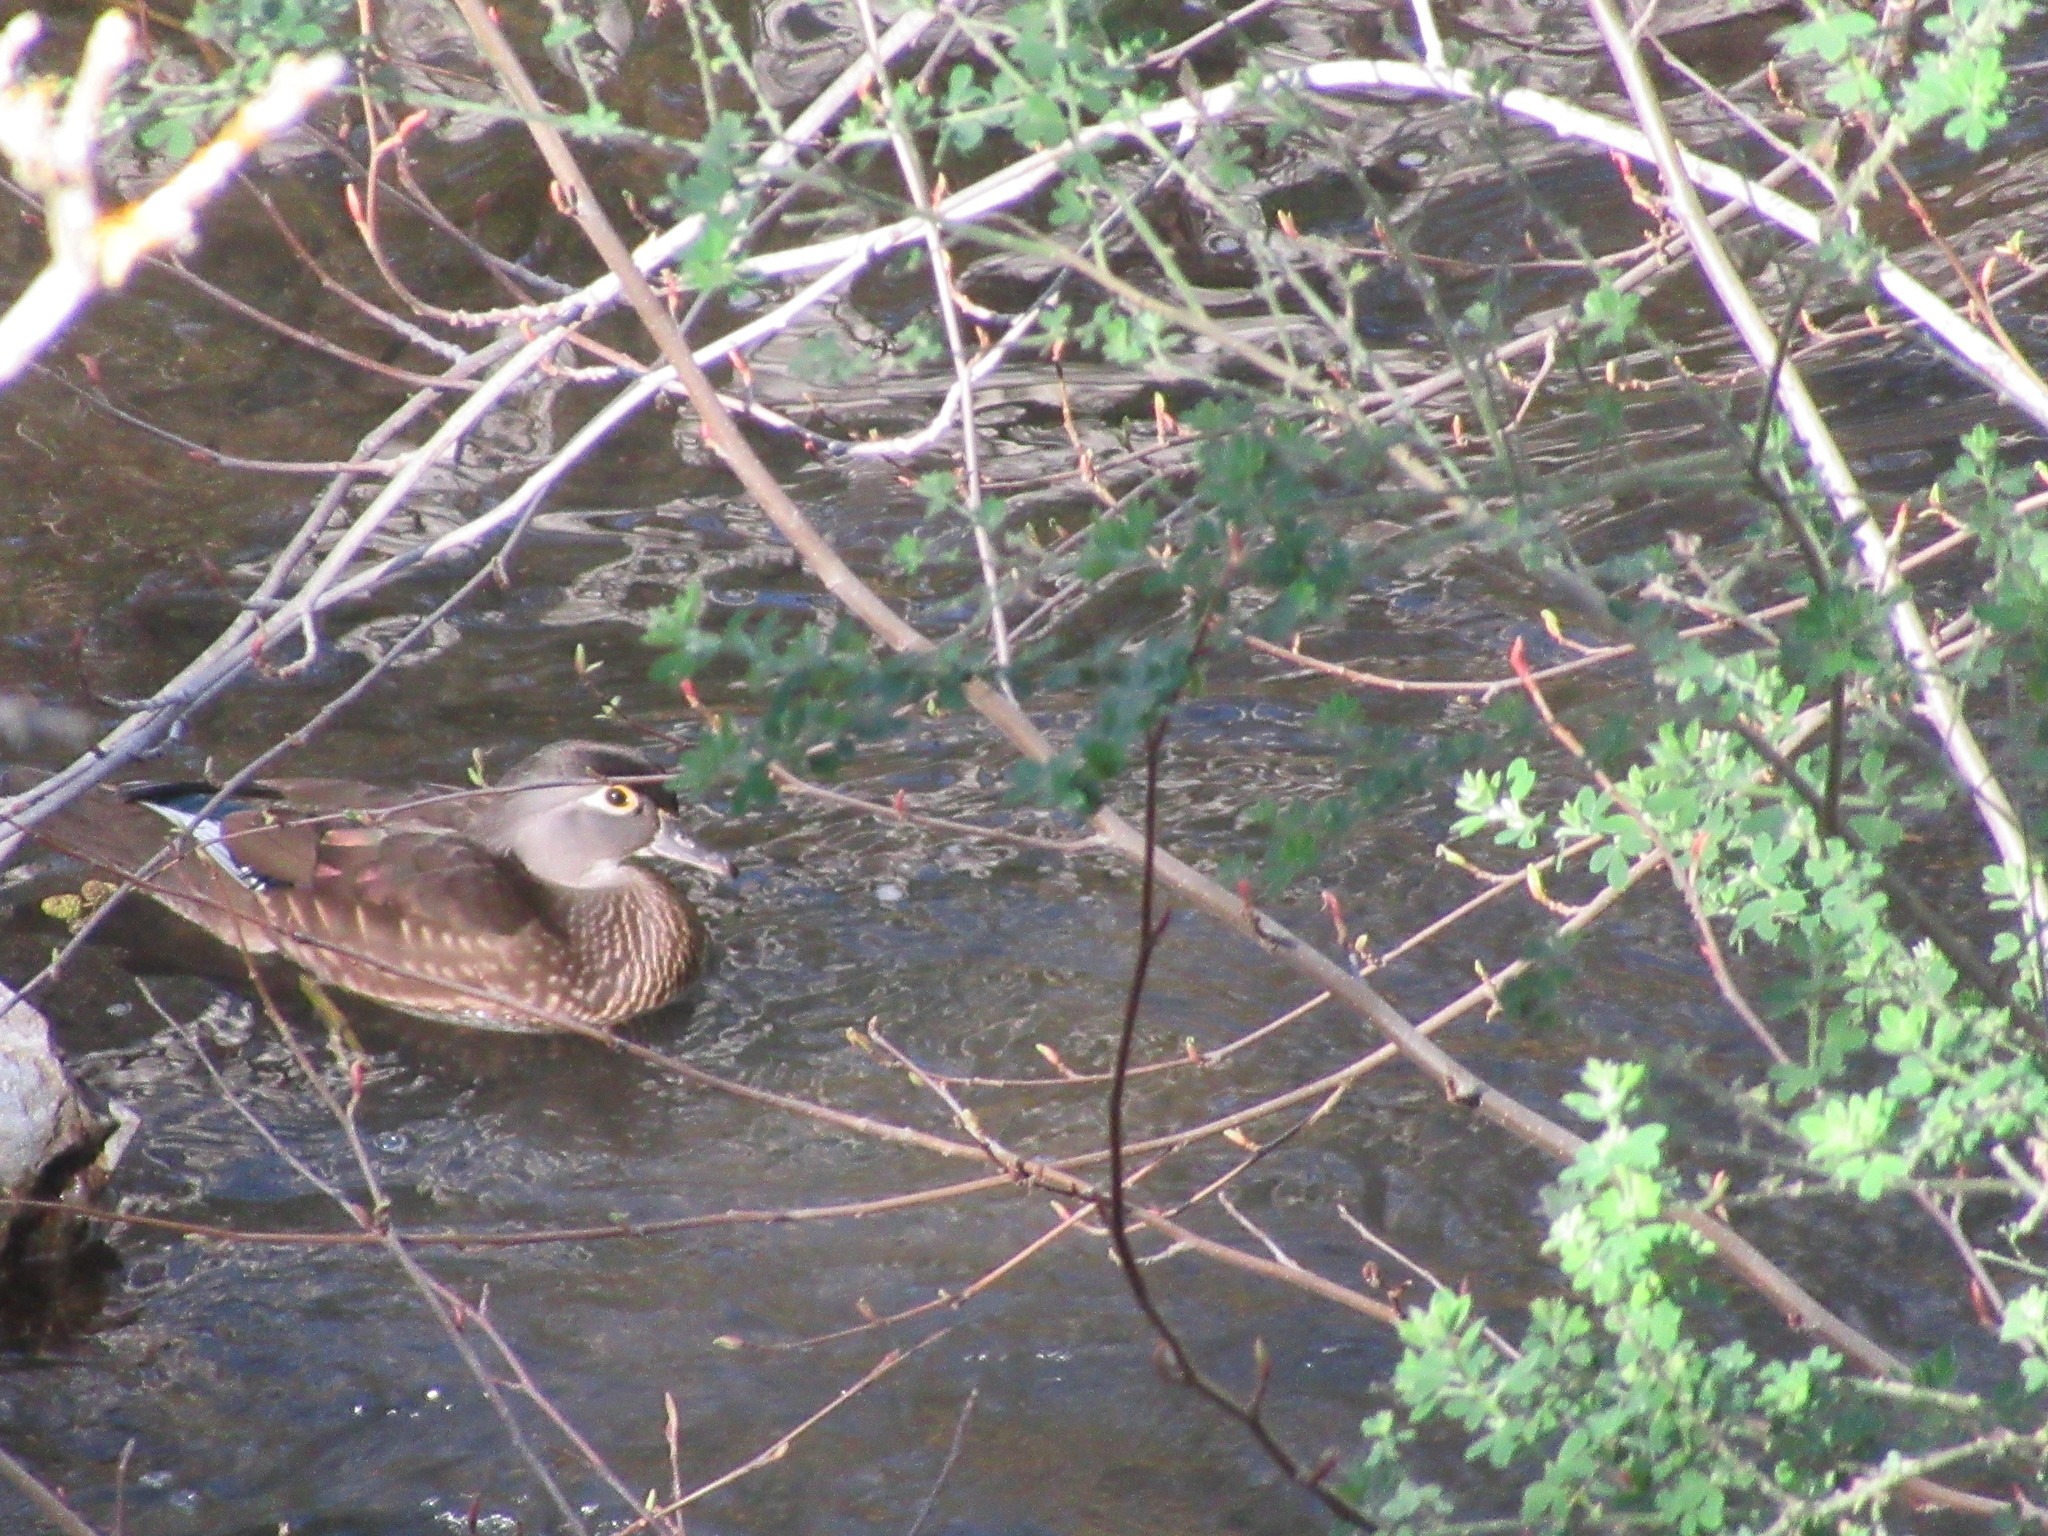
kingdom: Animalia
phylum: Chordata
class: Aves
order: Anseriformes
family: Anatidae
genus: Aix
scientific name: Aix sponsa
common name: Wood duck
